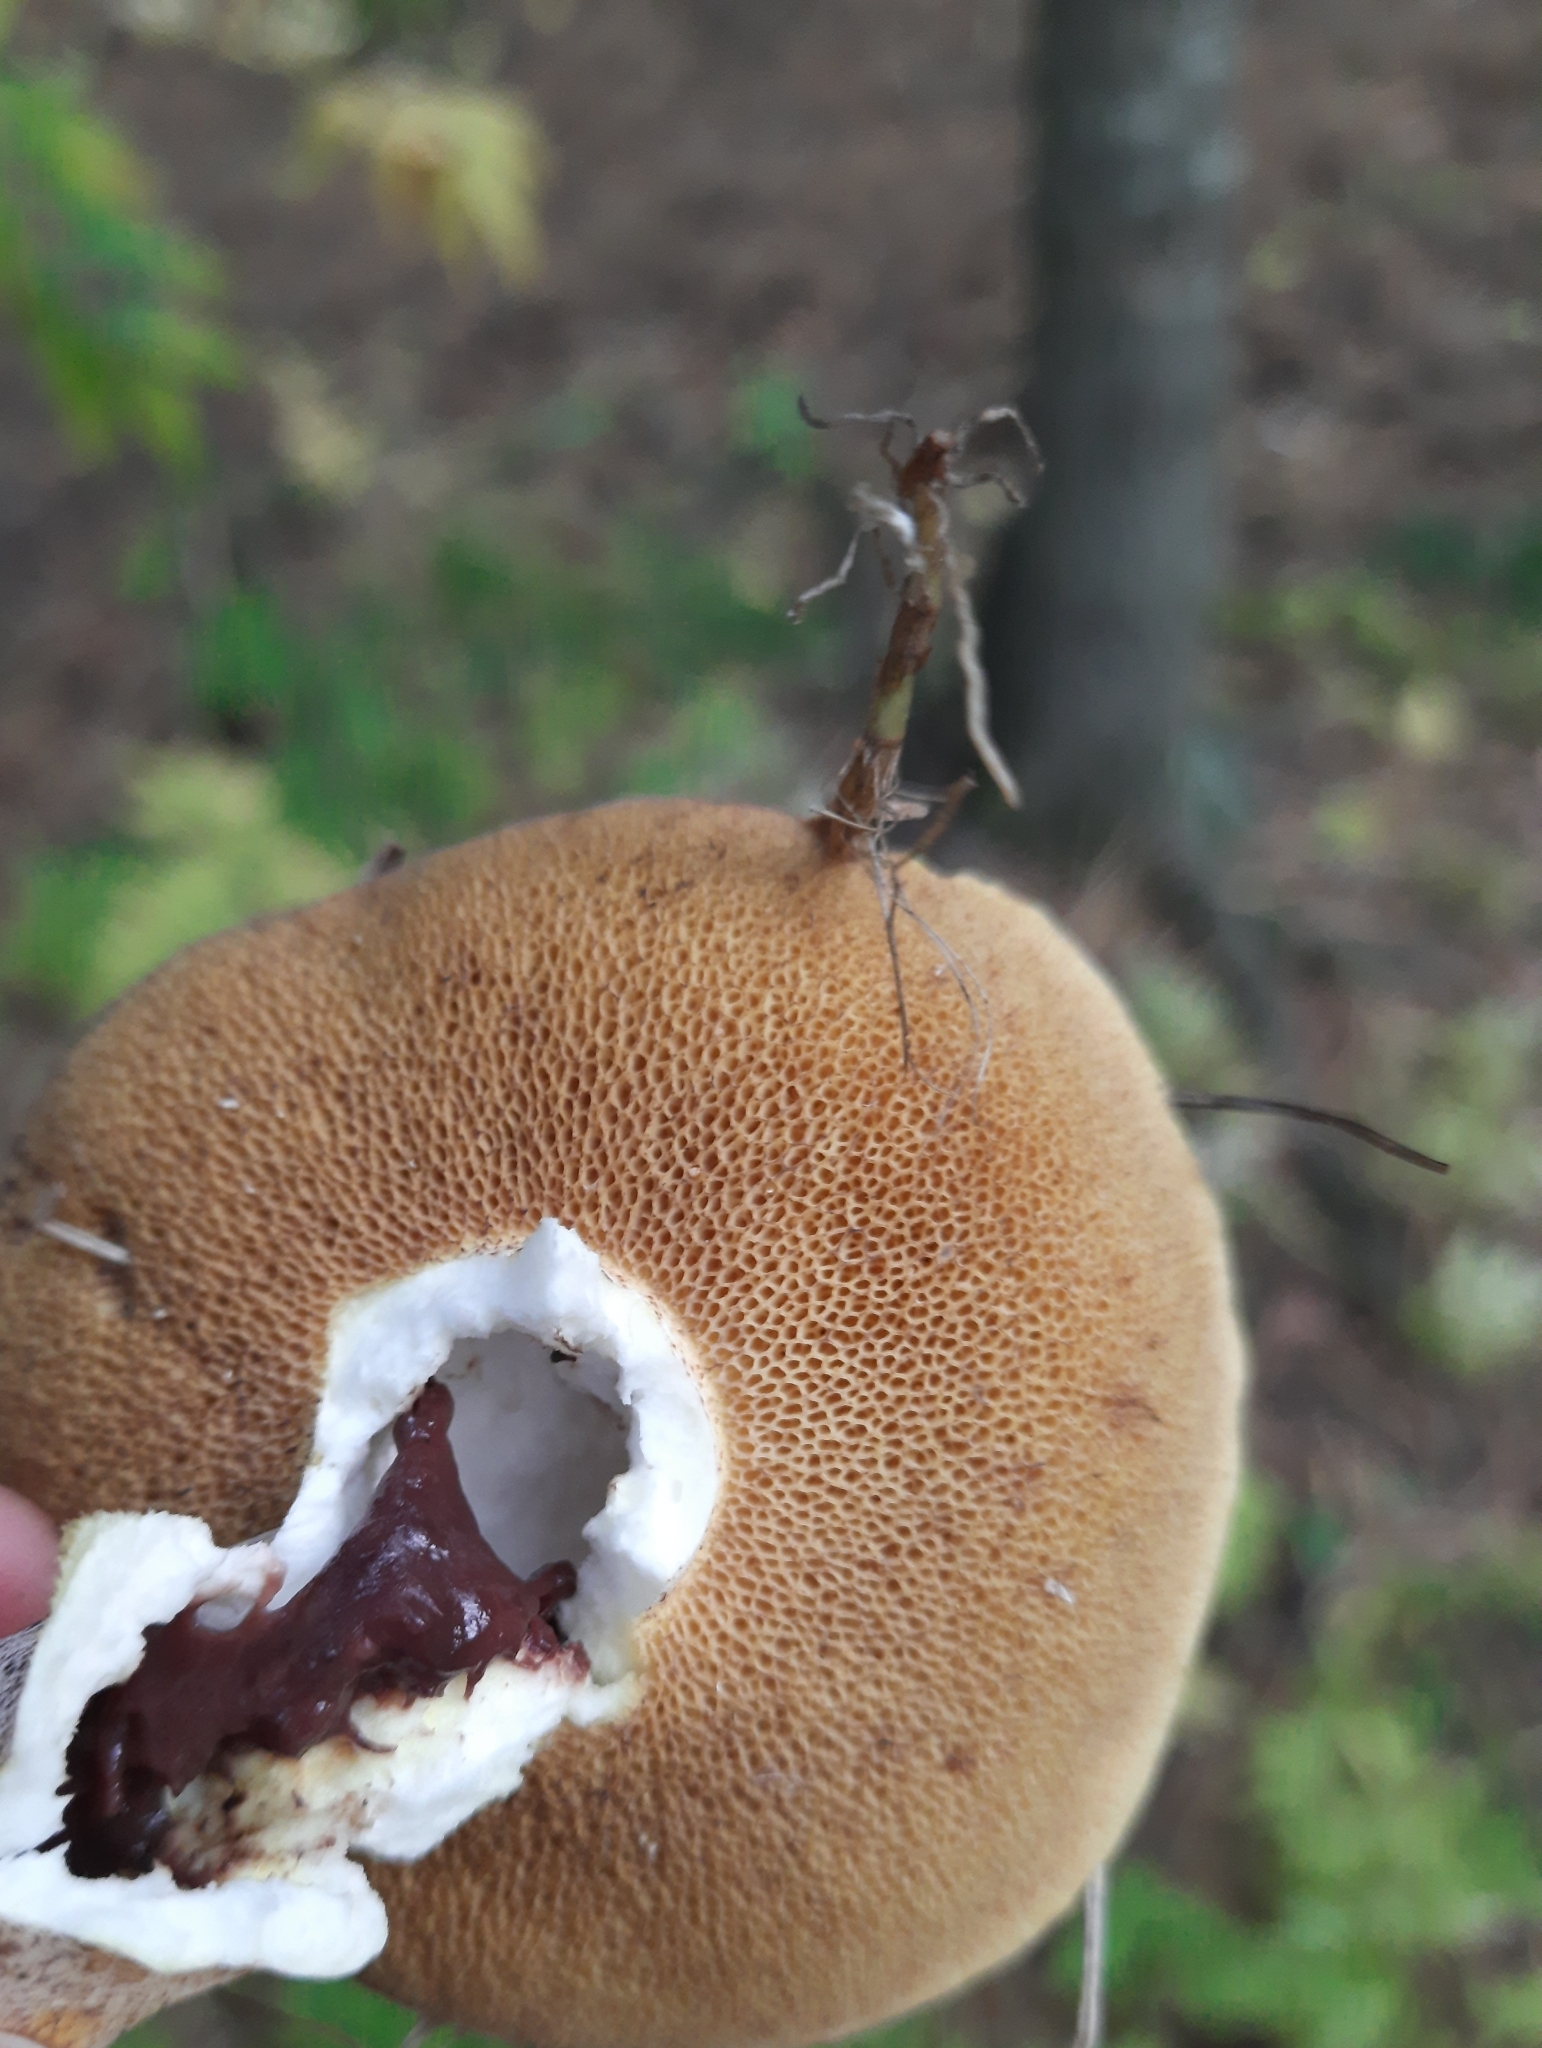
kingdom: Fungi
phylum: Basidiomycota
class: Agaricomycetes
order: Boletales
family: Suillaceae
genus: Suillus
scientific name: Suillus placidus
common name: Slippery white bolete
